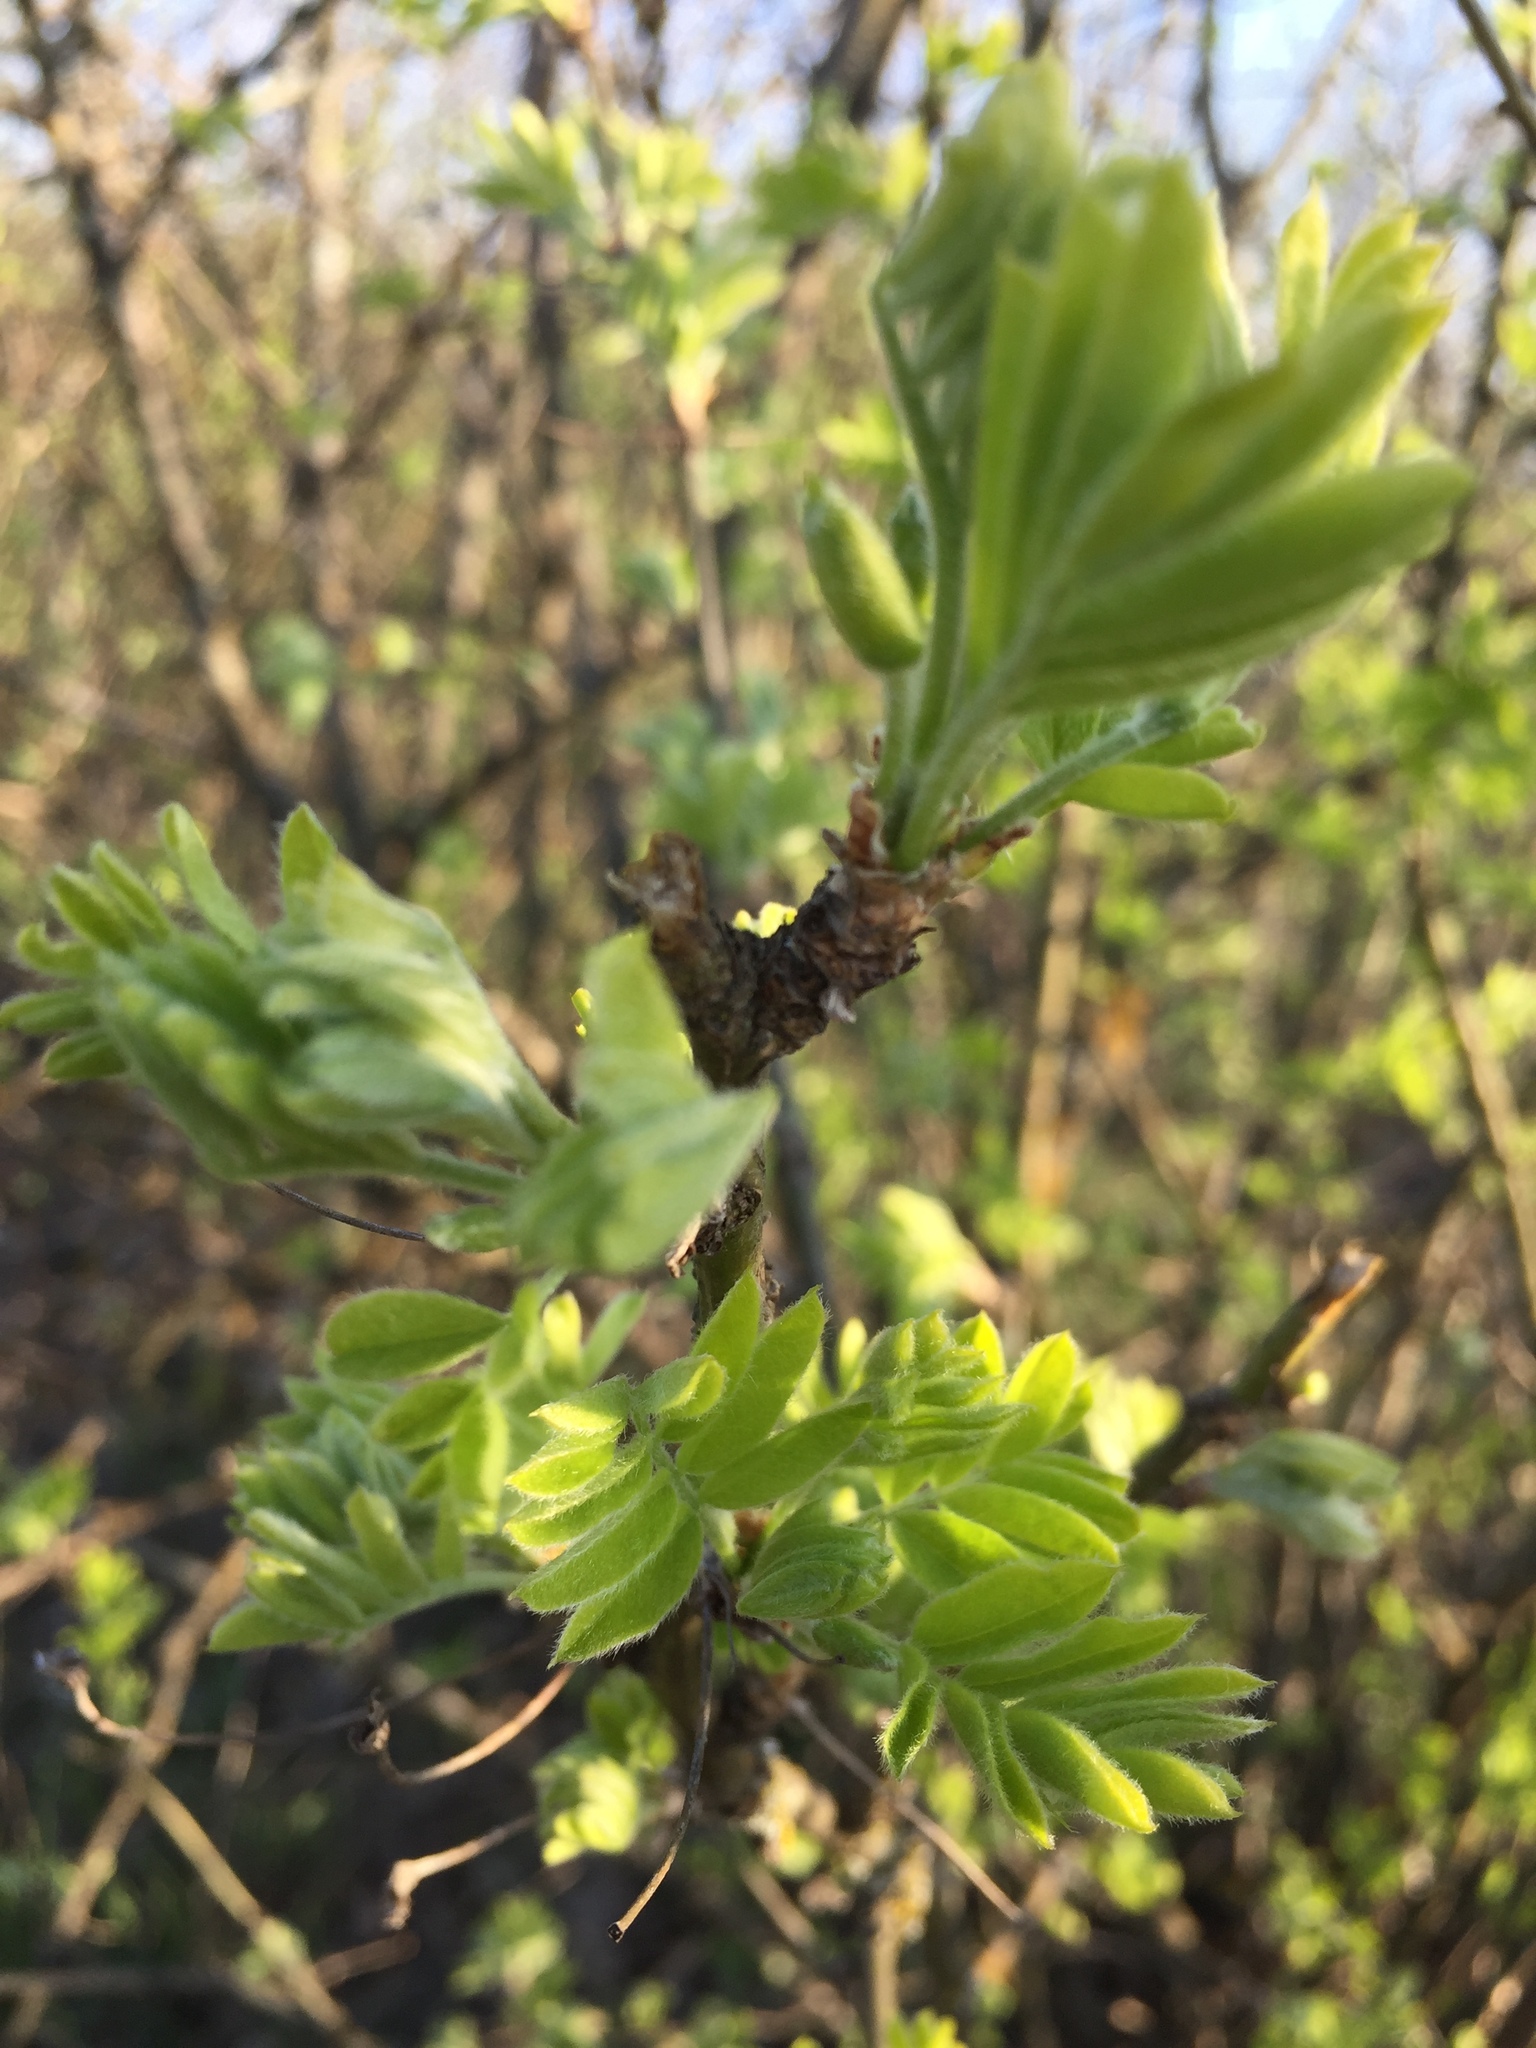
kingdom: Plantae
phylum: Tracheophyta
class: Magnoliopsida
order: Fabales
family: Fabaceae
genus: Caragana
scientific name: Caragana arborescens
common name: Siberian peashrub
